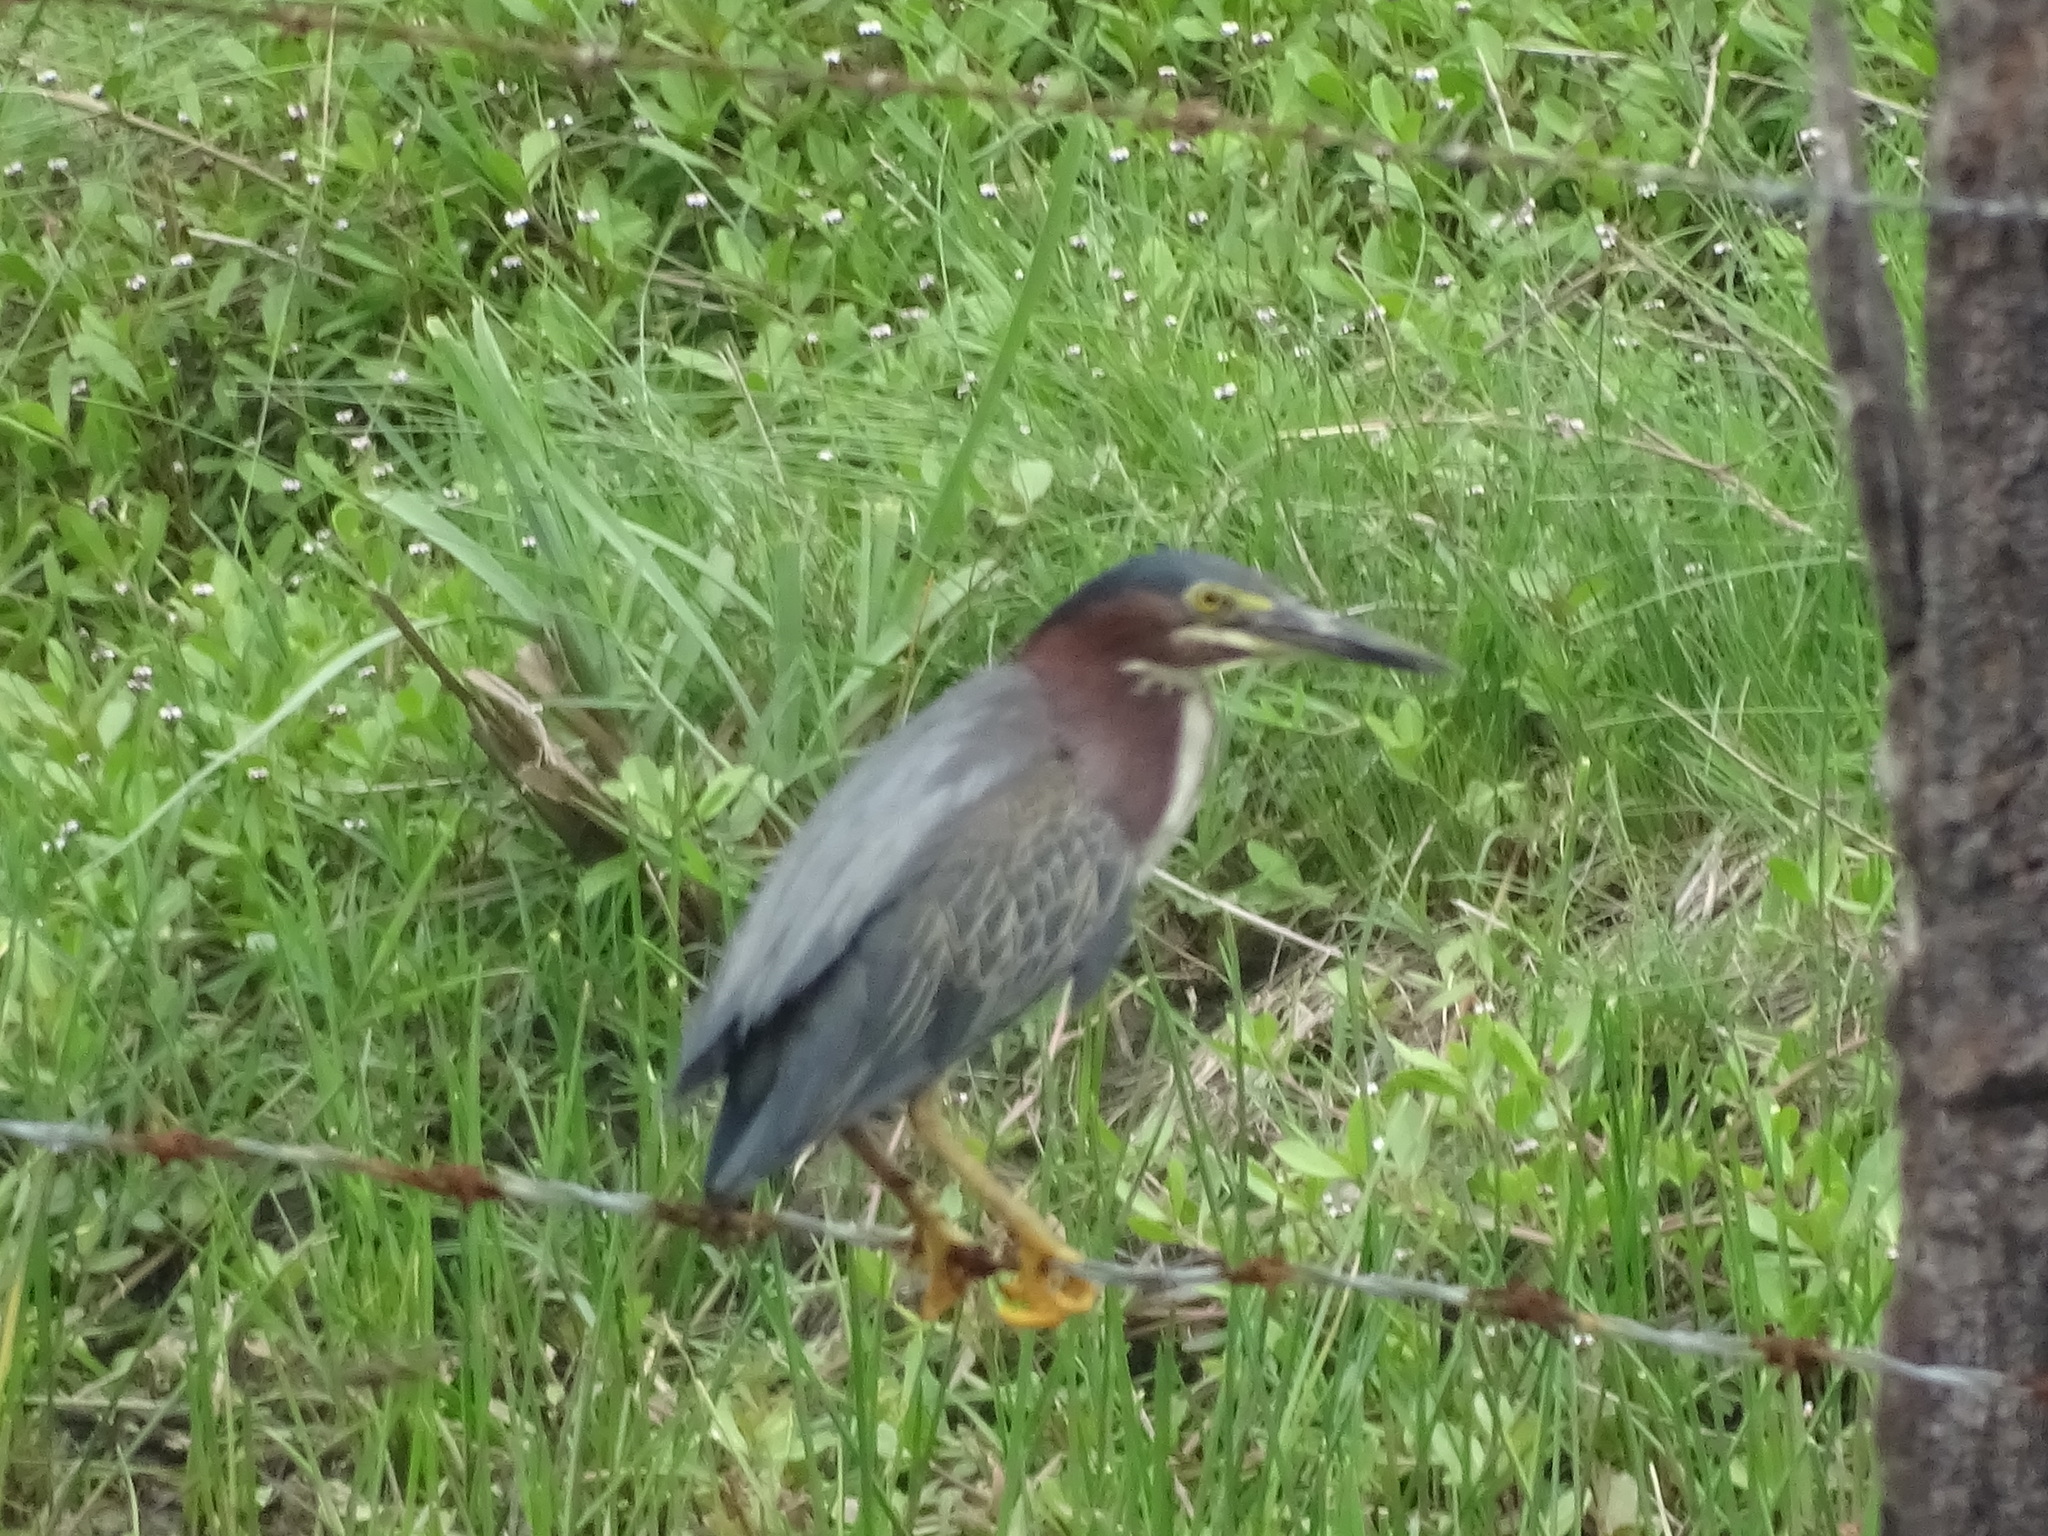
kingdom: Animalia
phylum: Chordata
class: Aves
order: Pelecaniformes
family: Ardeidae
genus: Butorides
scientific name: Butorides virescens
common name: Green heron
